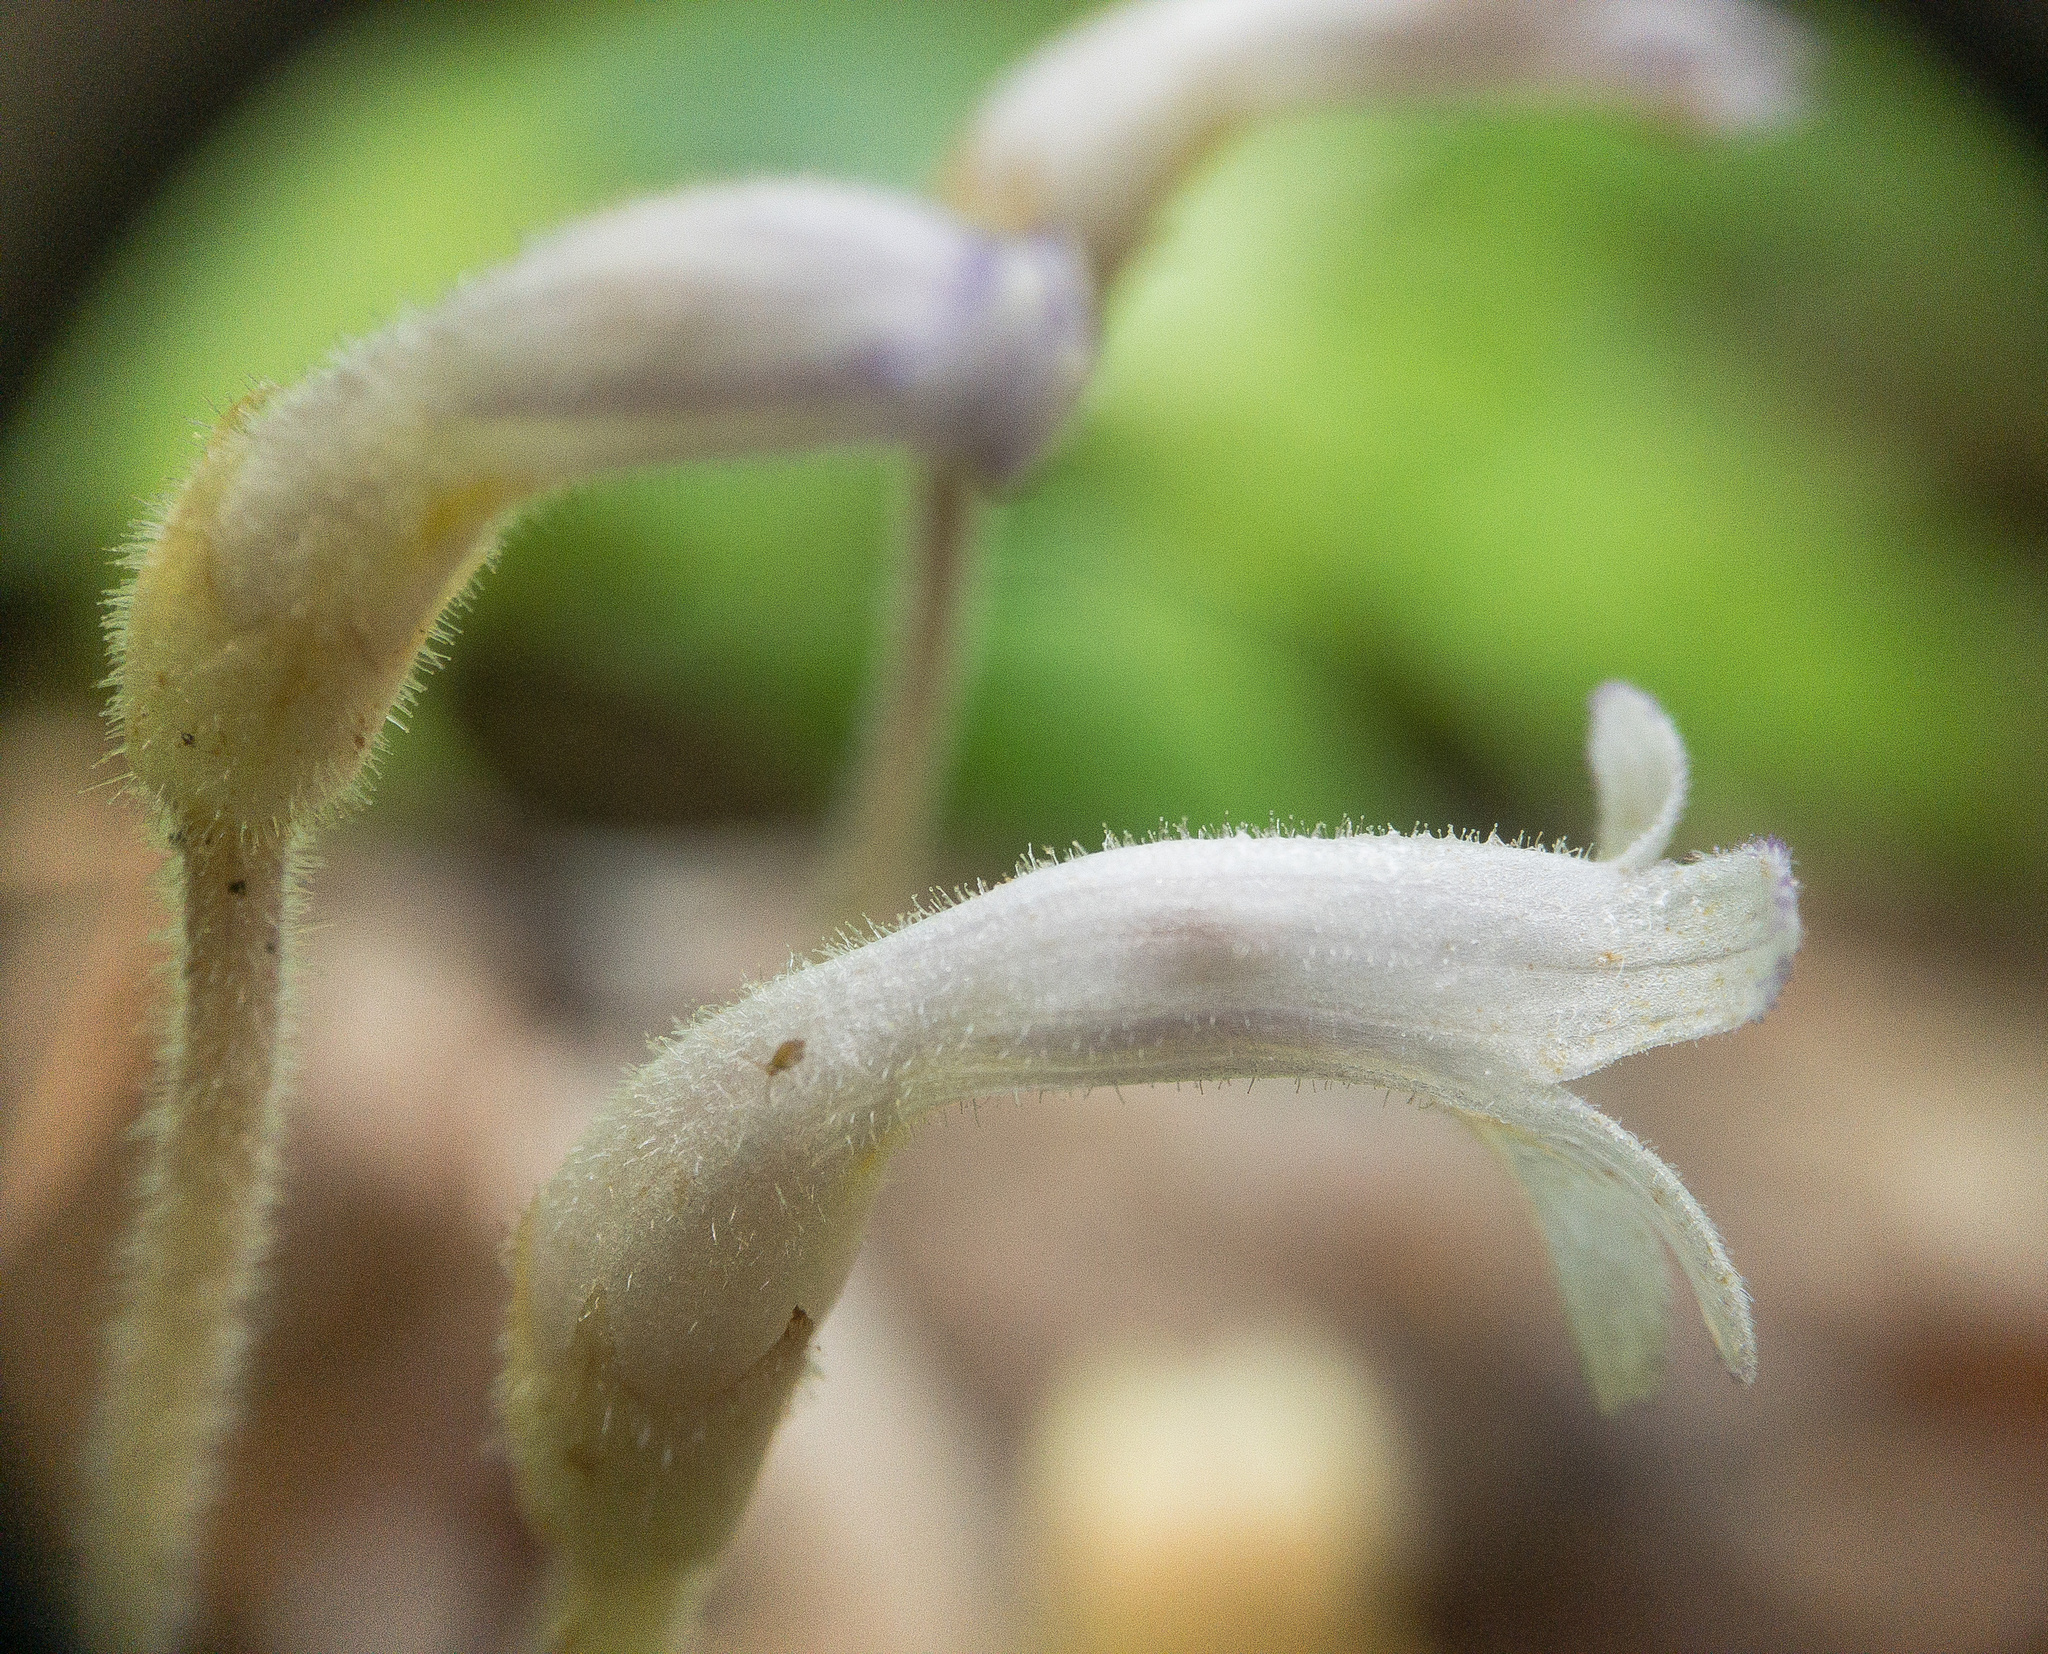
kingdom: Plantae
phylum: Tracheophyta
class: Magnoliopsida
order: Lamiales
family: Orobanchaceae
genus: Aphyllon
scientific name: Aphyllon uniflorum
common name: One-flowered broomrape
